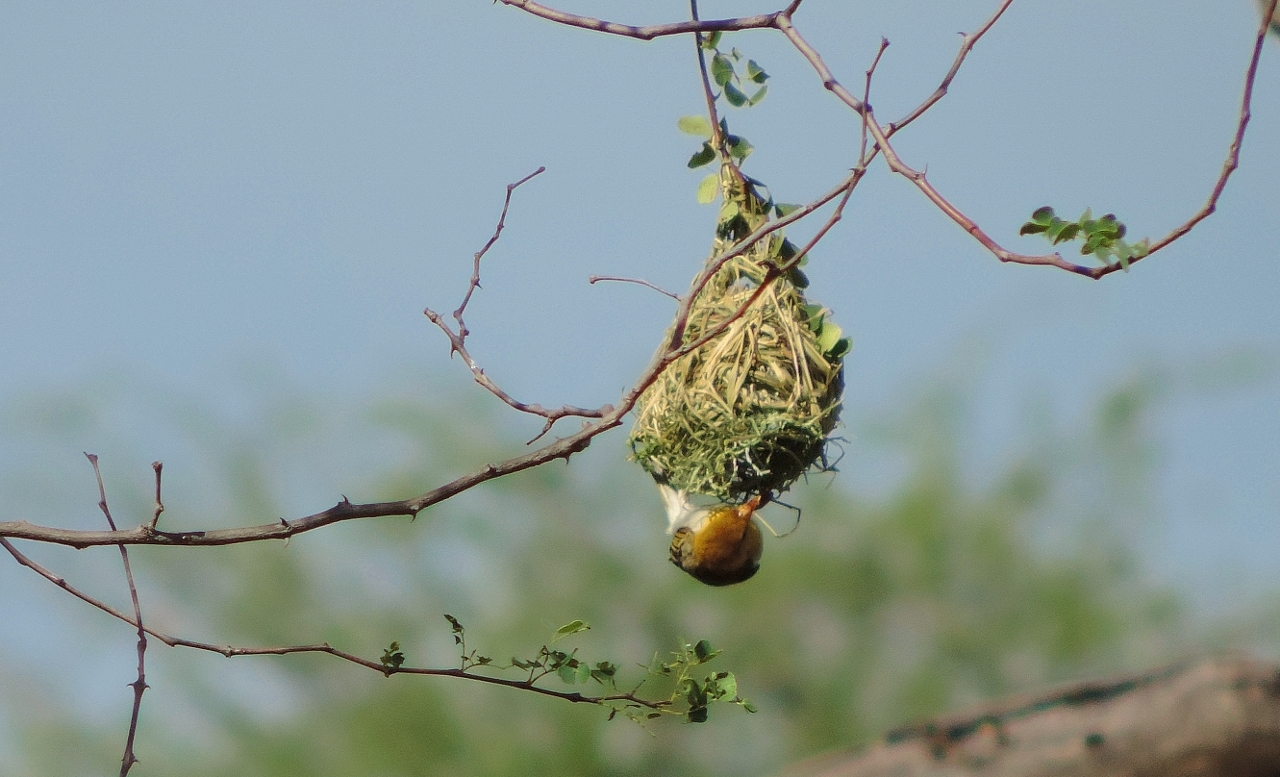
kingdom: Animalia
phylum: Chordata
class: Aves
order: Passeriformes
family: Ploceidae
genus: Anaplectes
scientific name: Anaplectes rubriceps
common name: Red-headed weaver
